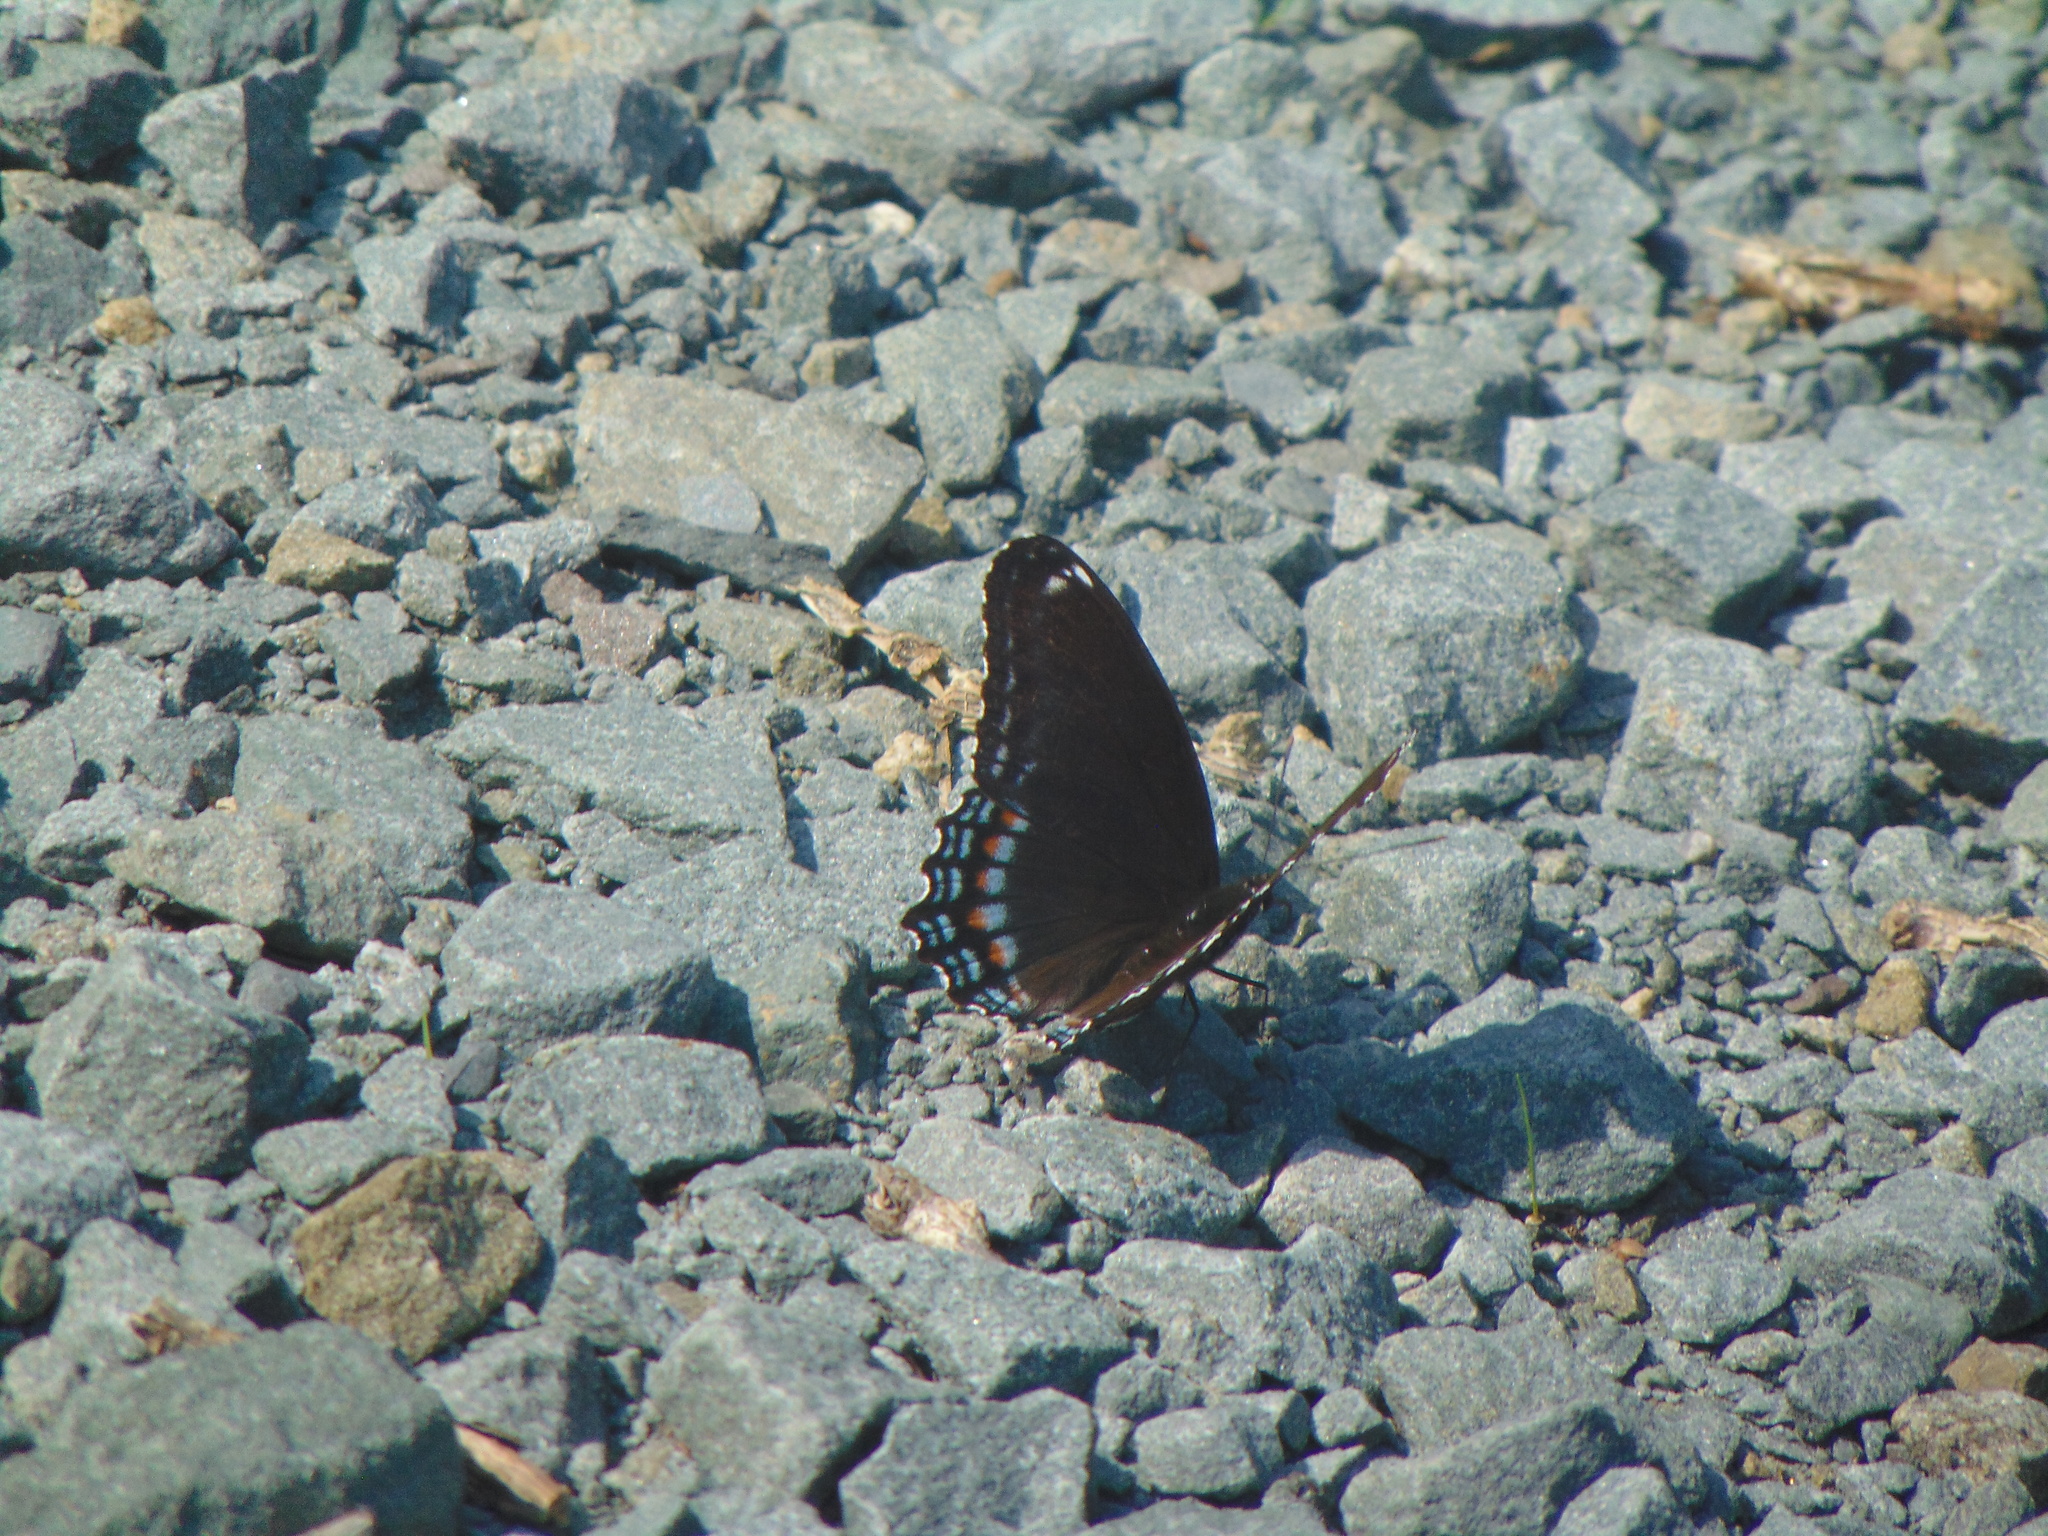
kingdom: Animalia
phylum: Arthropoda
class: Insecta
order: Lepidoptera
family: Nymphalidae
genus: Limenitis
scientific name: Limenitis astyanax
